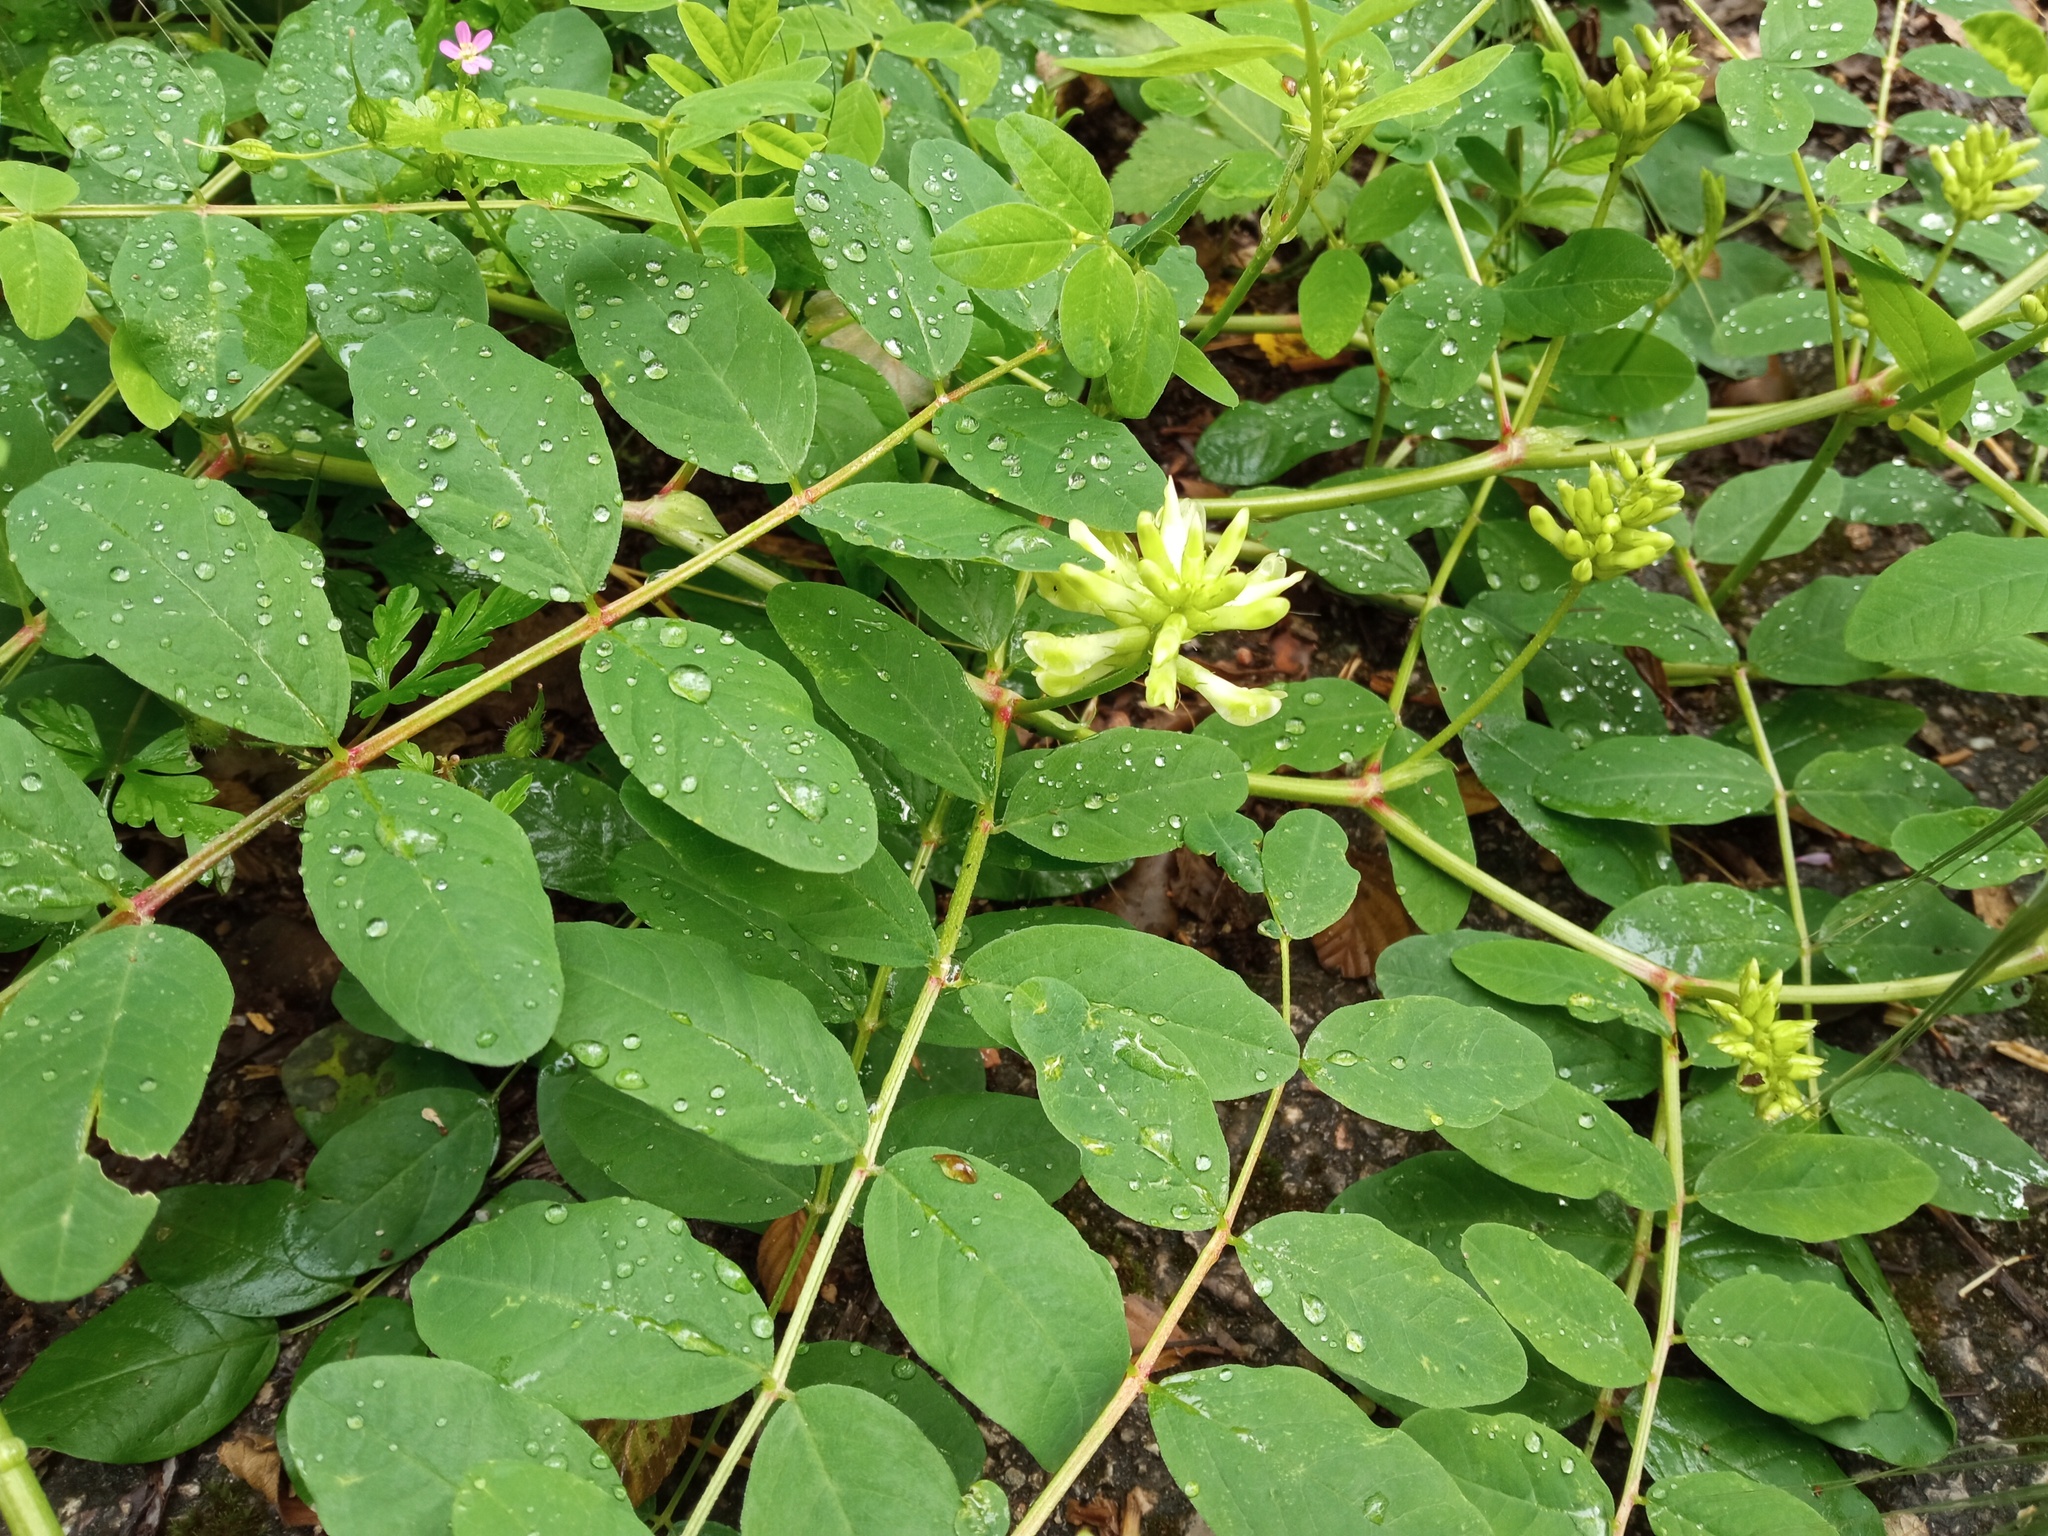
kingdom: Plantae
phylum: Tracheophyta
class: Magnoliopsida
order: Fabales
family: Fabaceae
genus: Astragalus
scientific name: Astragalus glycyphyllos
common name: Wild liquorice
